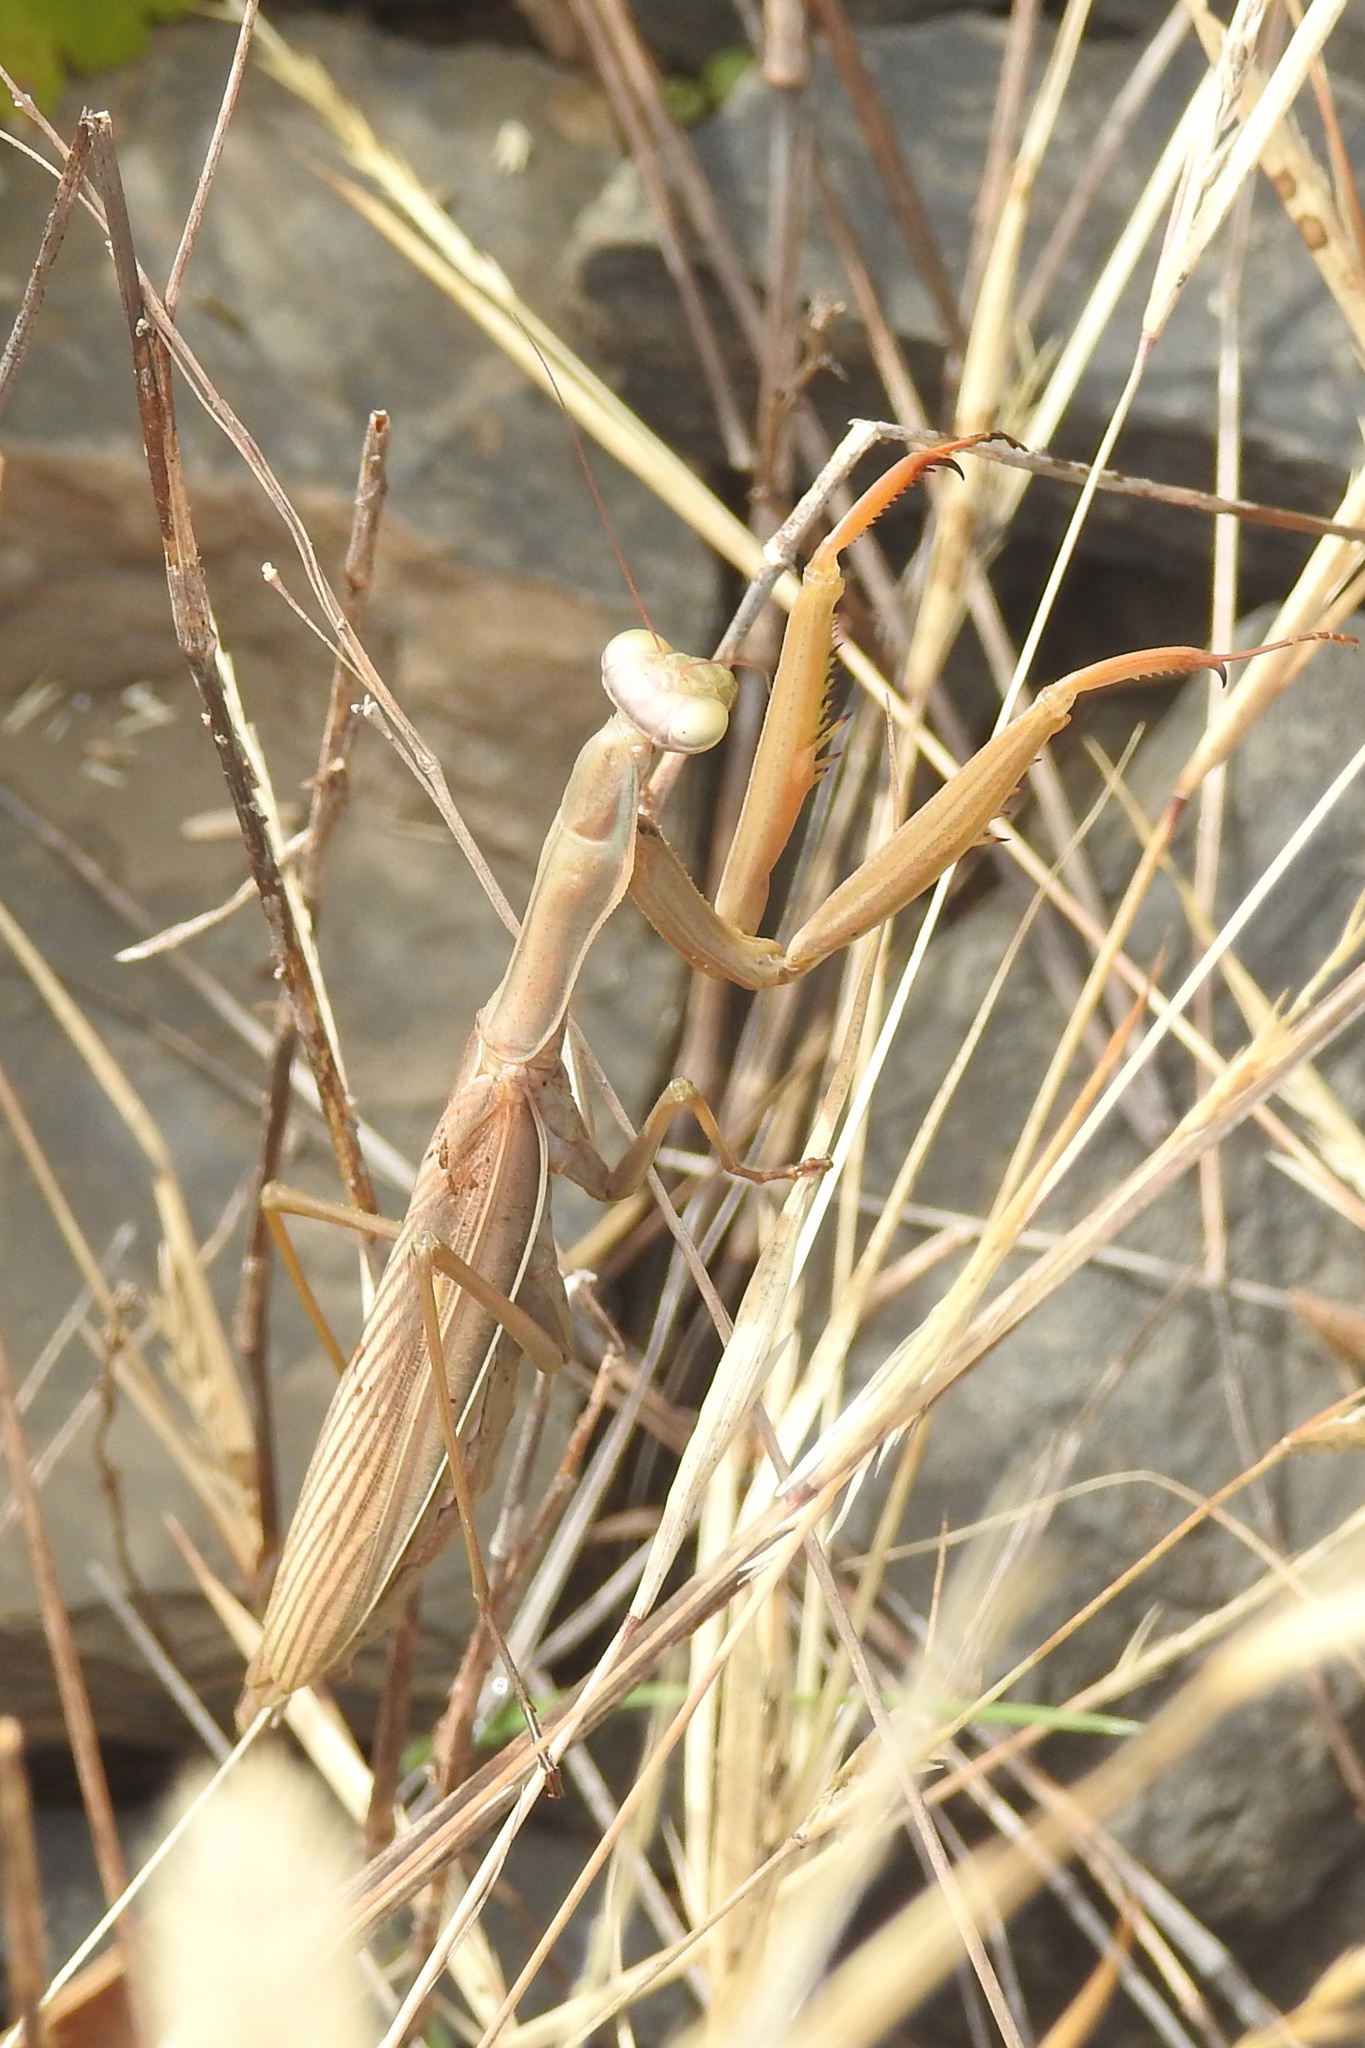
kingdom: Animalia
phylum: Arthropoda
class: Insecta
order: Mantodea
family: Mantidae
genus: Mantis
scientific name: Mantis religiosa
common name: Praying mantis
